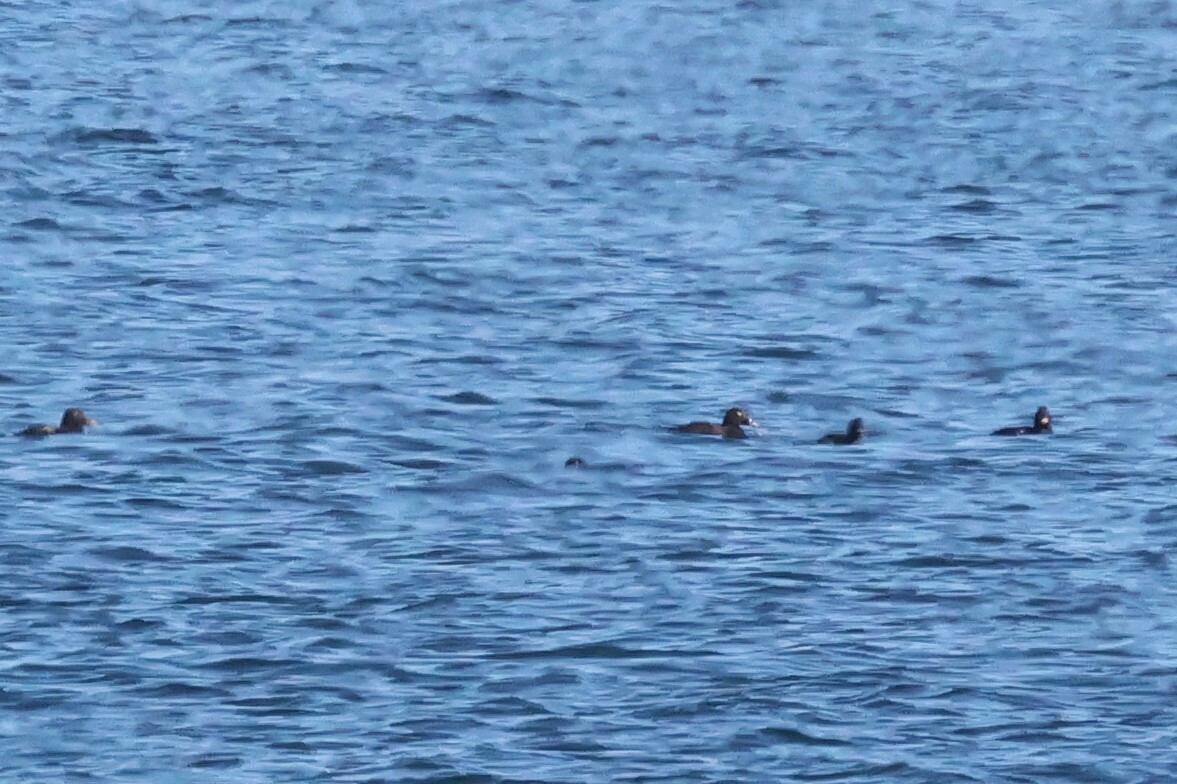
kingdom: Animalia
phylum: Chordata
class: Aves
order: Anseriformes
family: Anatidae
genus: Melanitta
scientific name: Melanitta deglandi
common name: White-winged scoter
